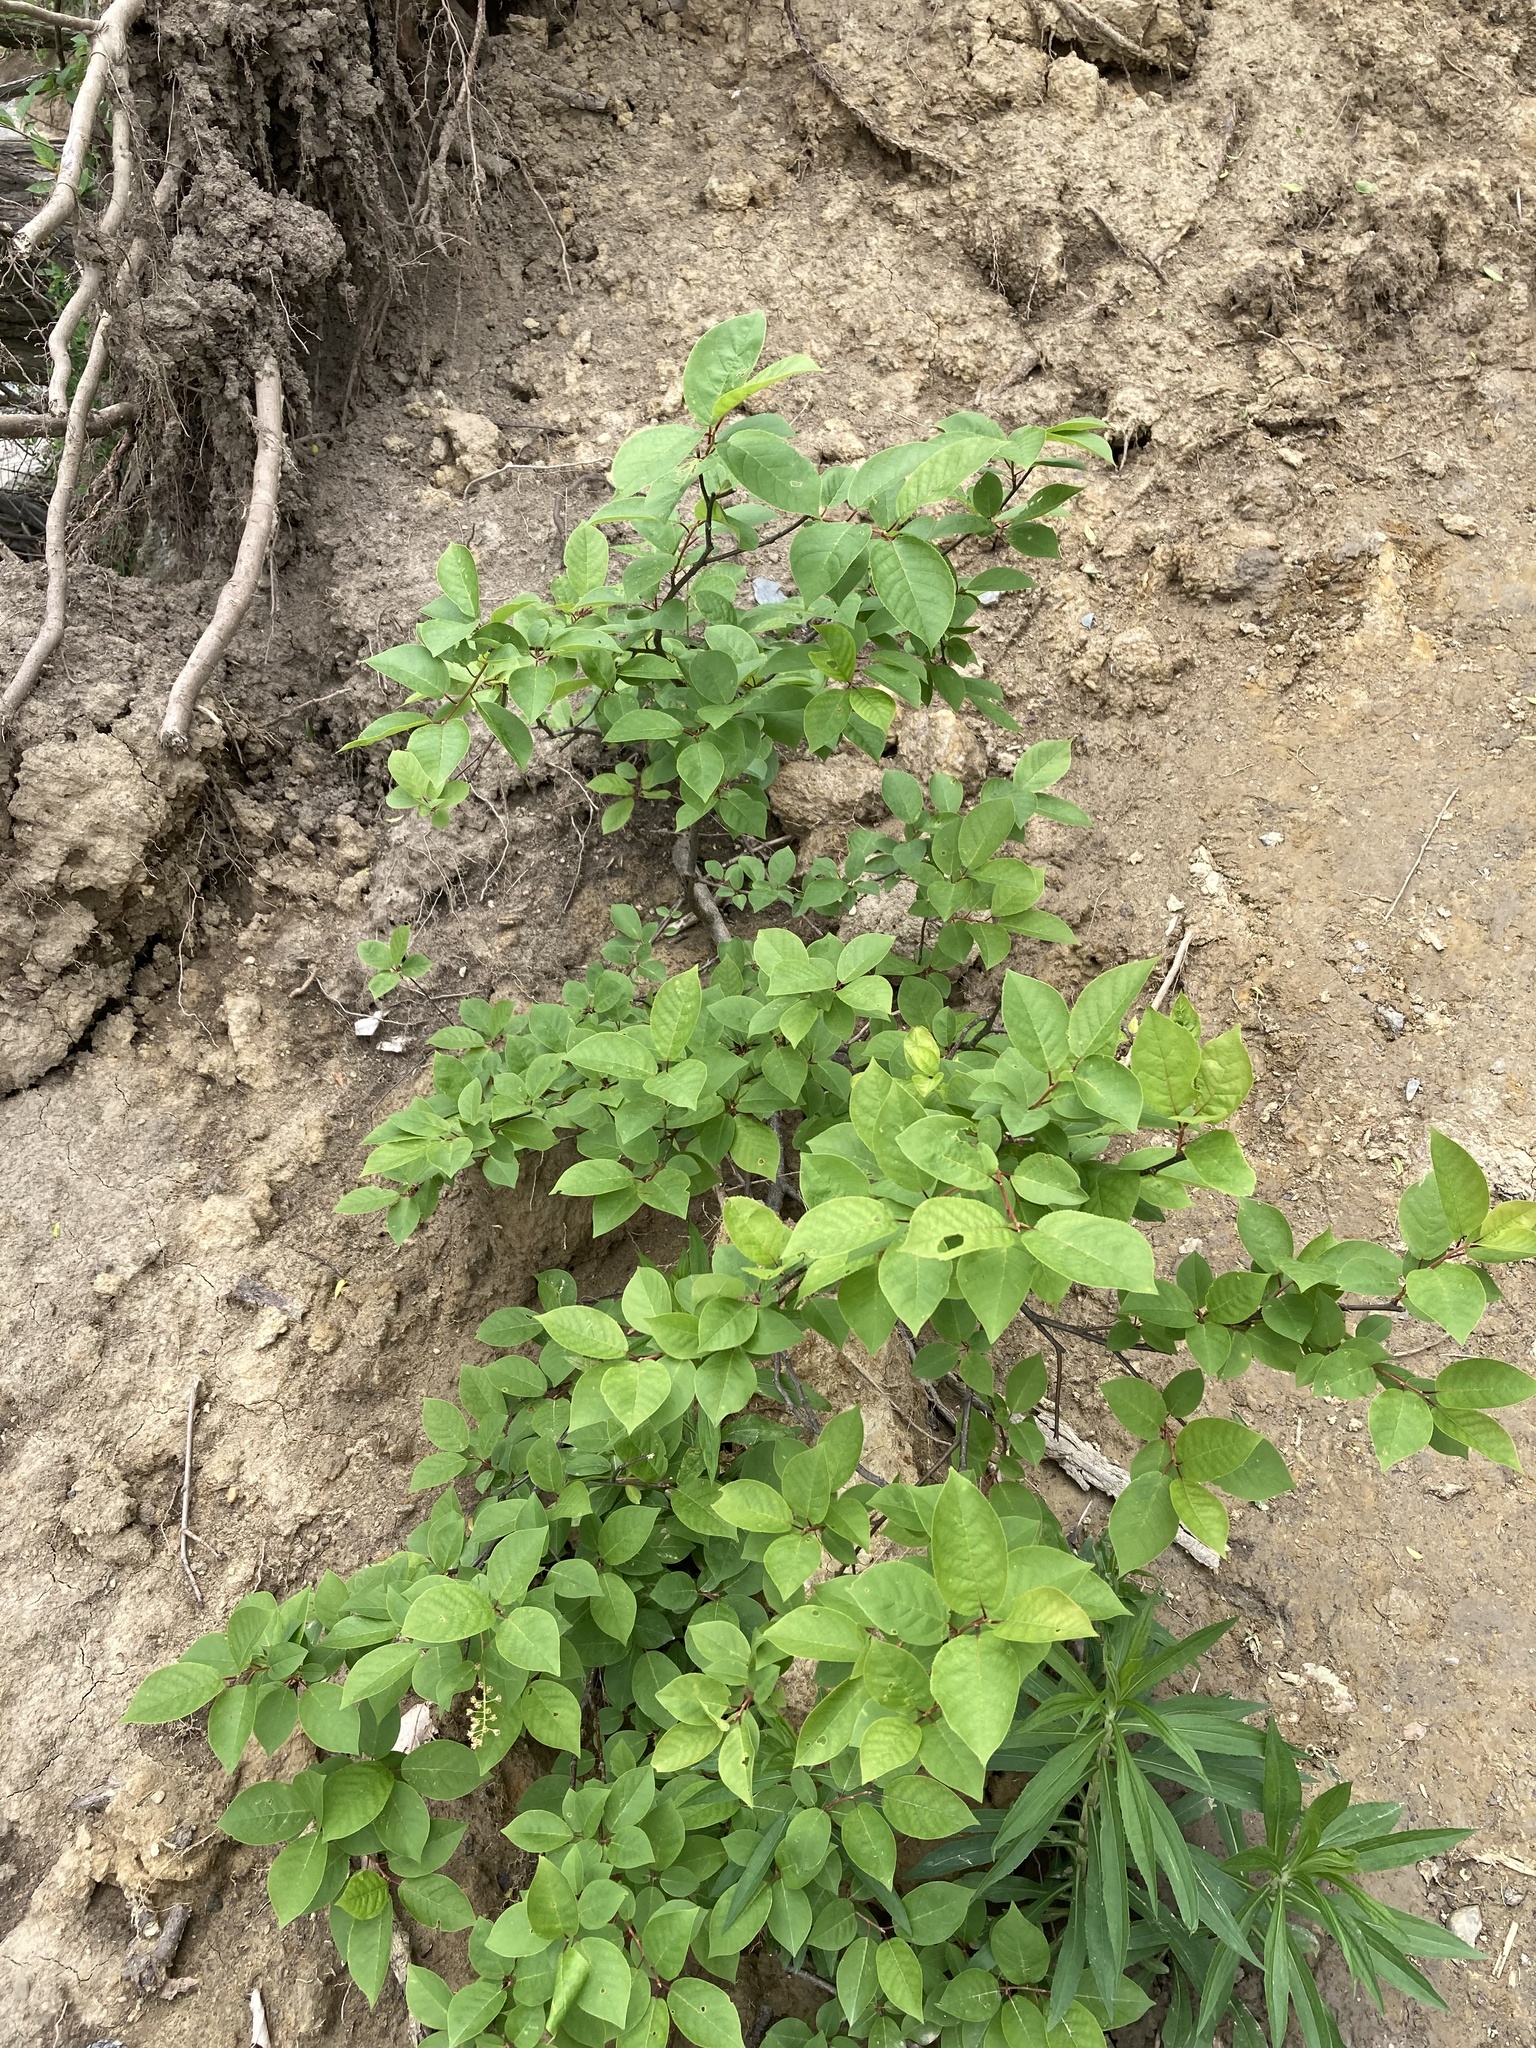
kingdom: Plantae
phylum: Tracheophyta
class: Magnoliopsida
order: Rosales
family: Rosaceae
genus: Prunus
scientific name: Prunus virginiana
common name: Chokecherry
